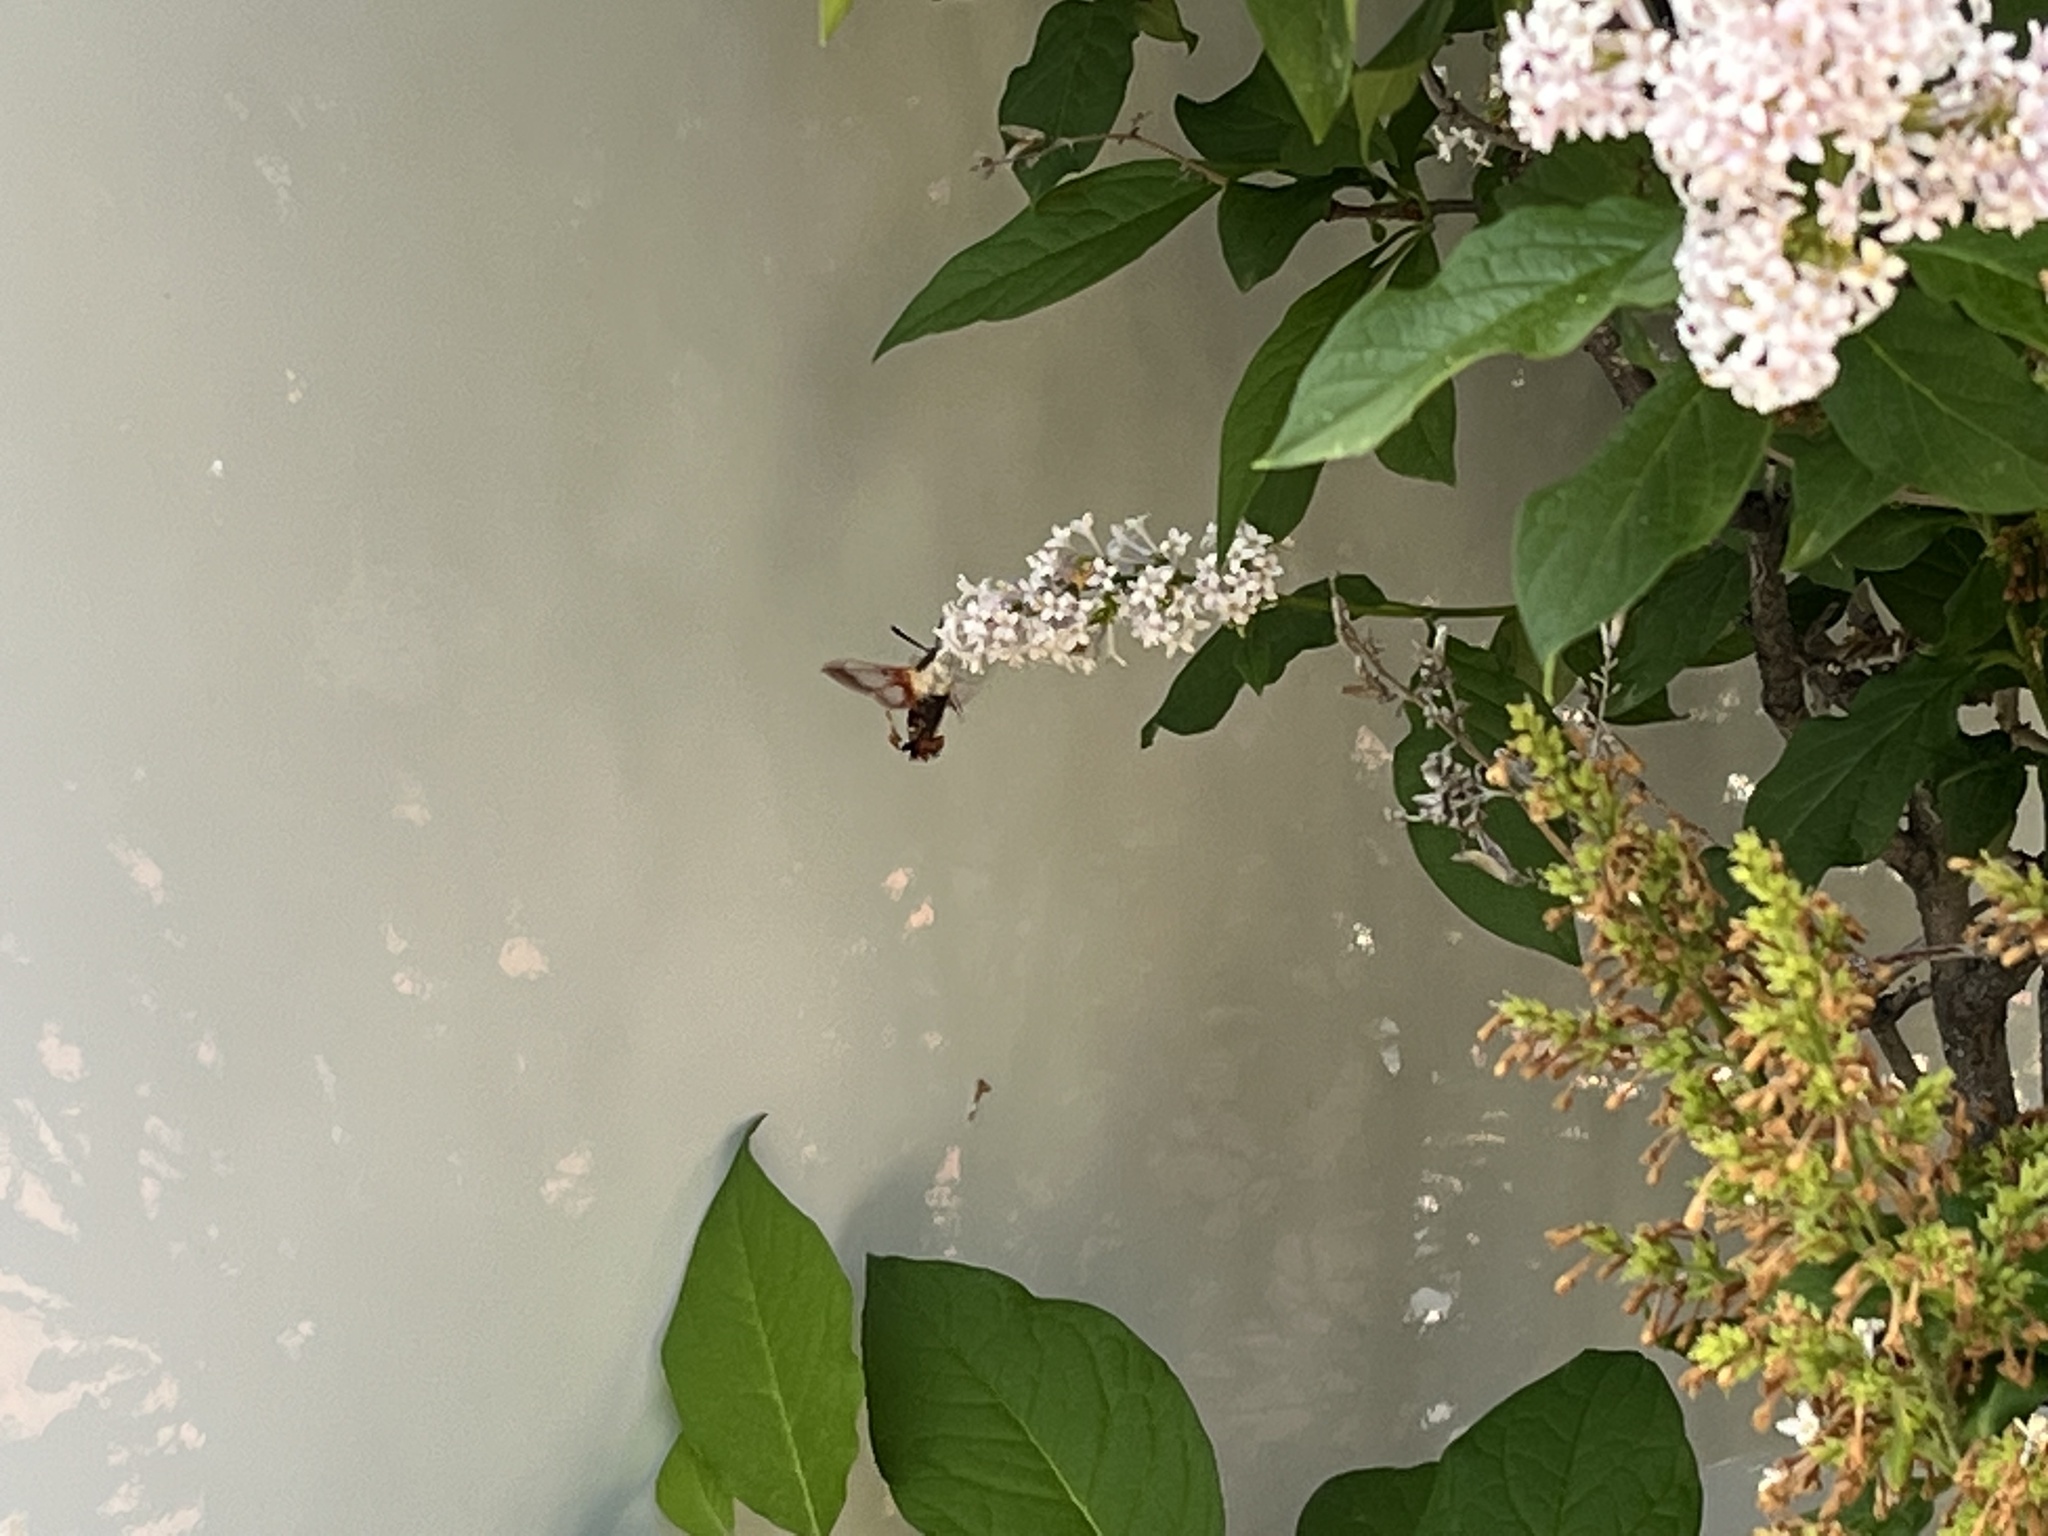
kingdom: Animalia
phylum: Arthropoda
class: Insecta
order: Lepidoptera
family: Sphingidae
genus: Hemaris
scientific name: Hemaris thysbe
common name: Common clear-wing
